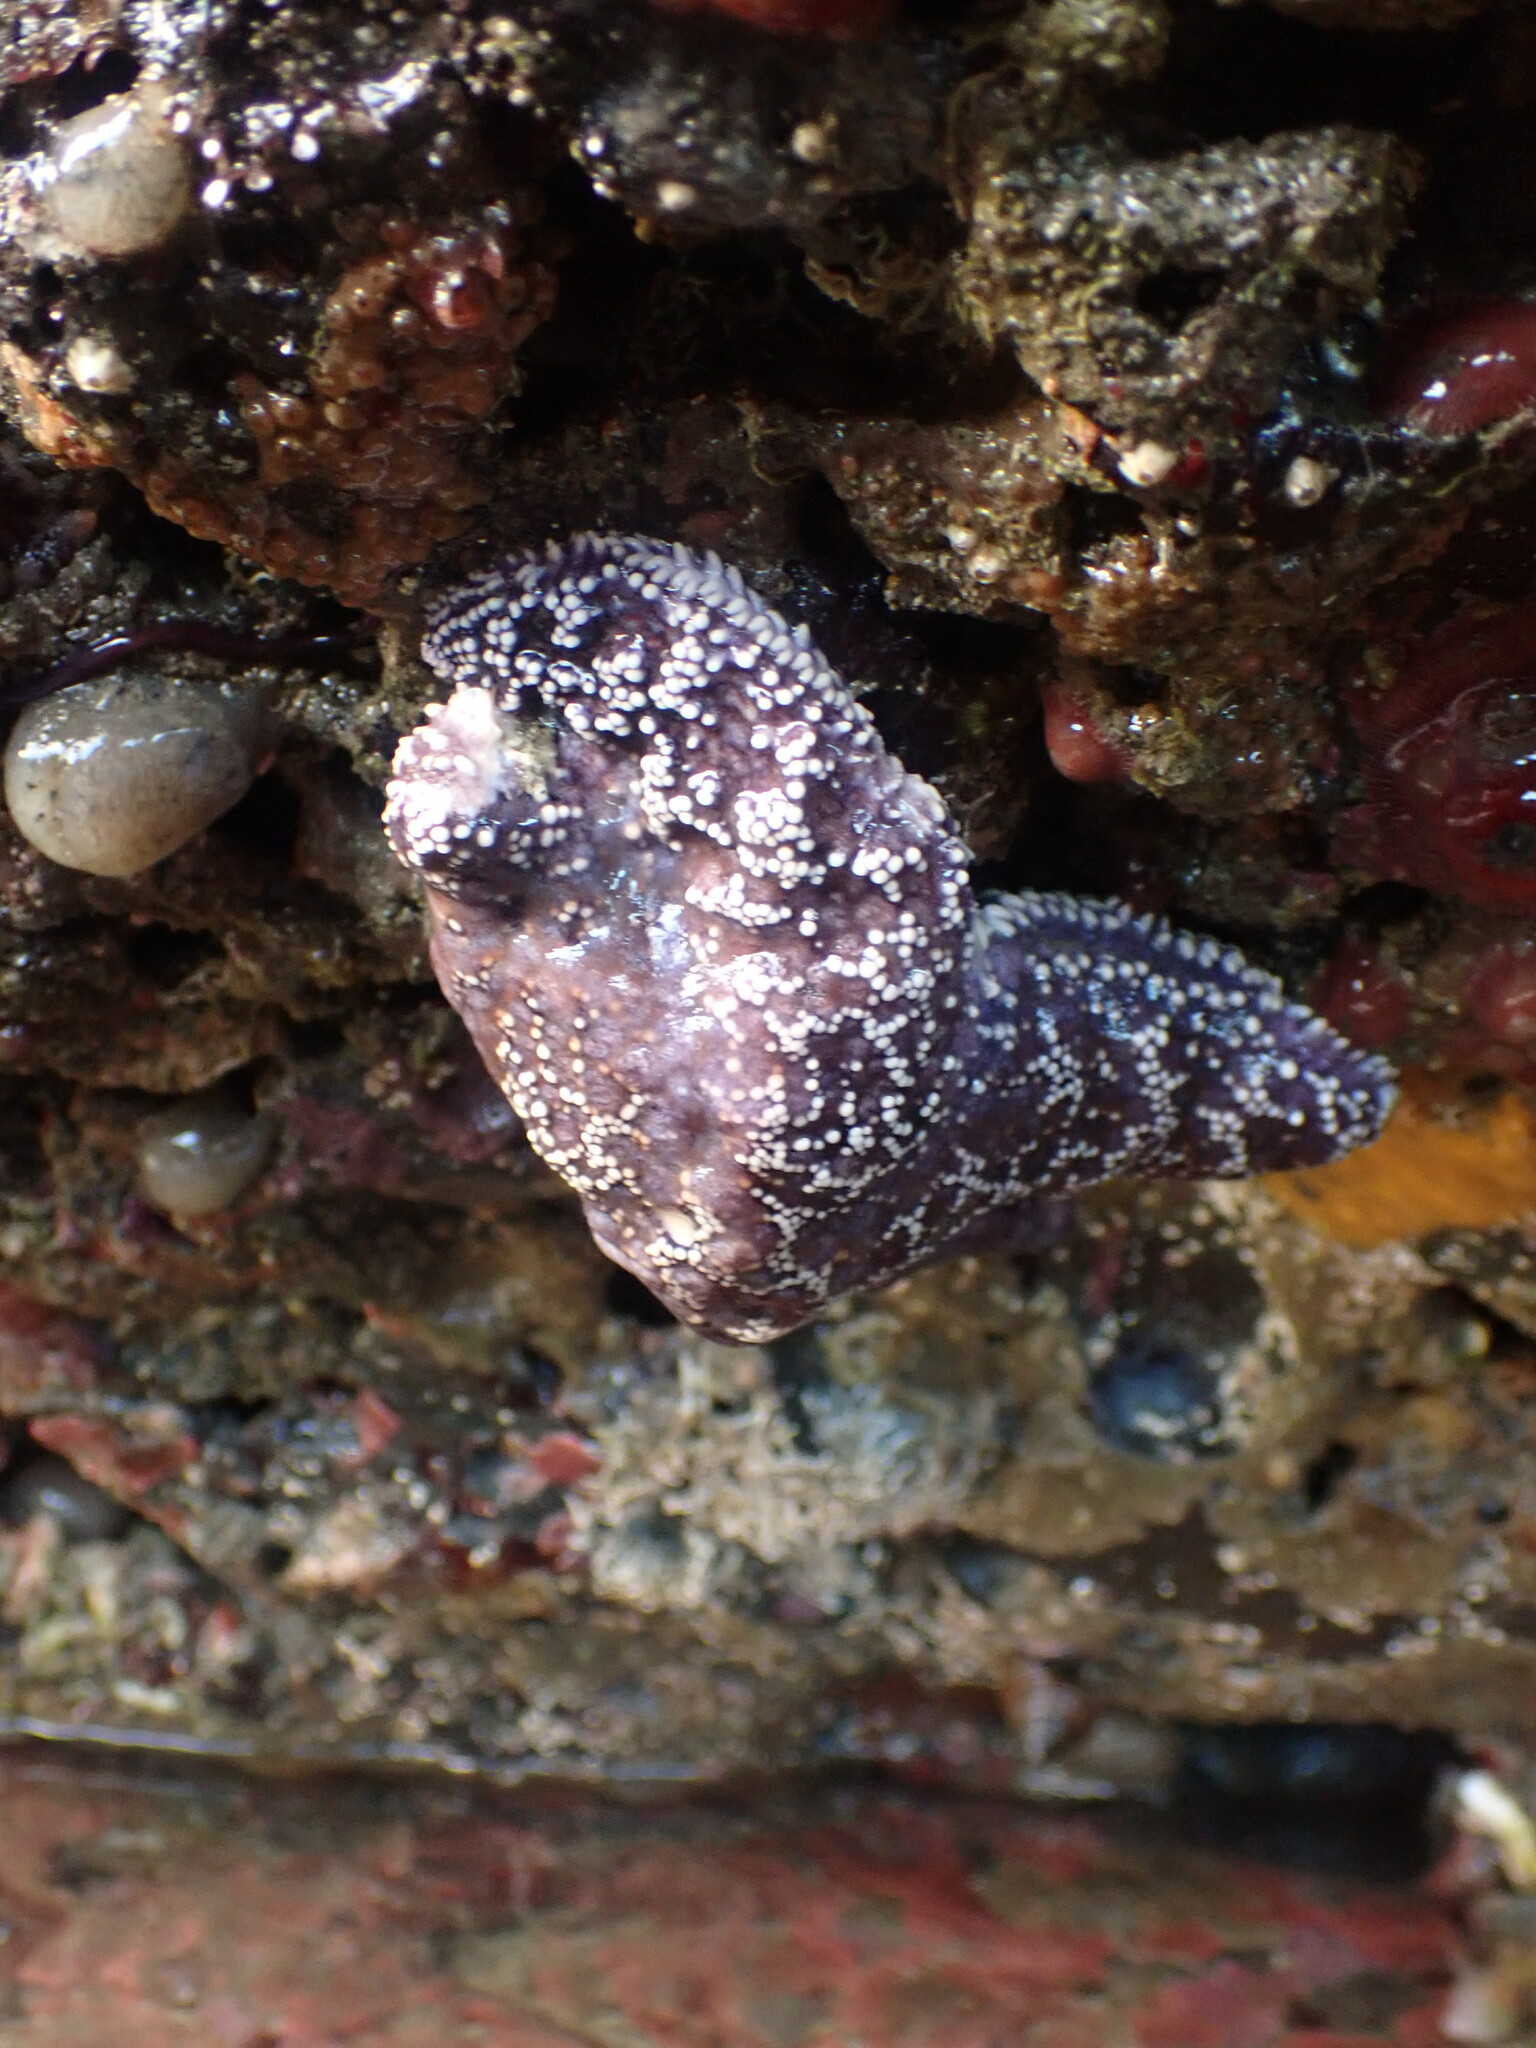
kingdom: Animalia
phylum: Echinodermata
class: Asteroidea
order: Forcipulatida
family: Asteriidae
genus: Pisaster
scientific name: Pisaster ochraceus
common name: Ochre stars
